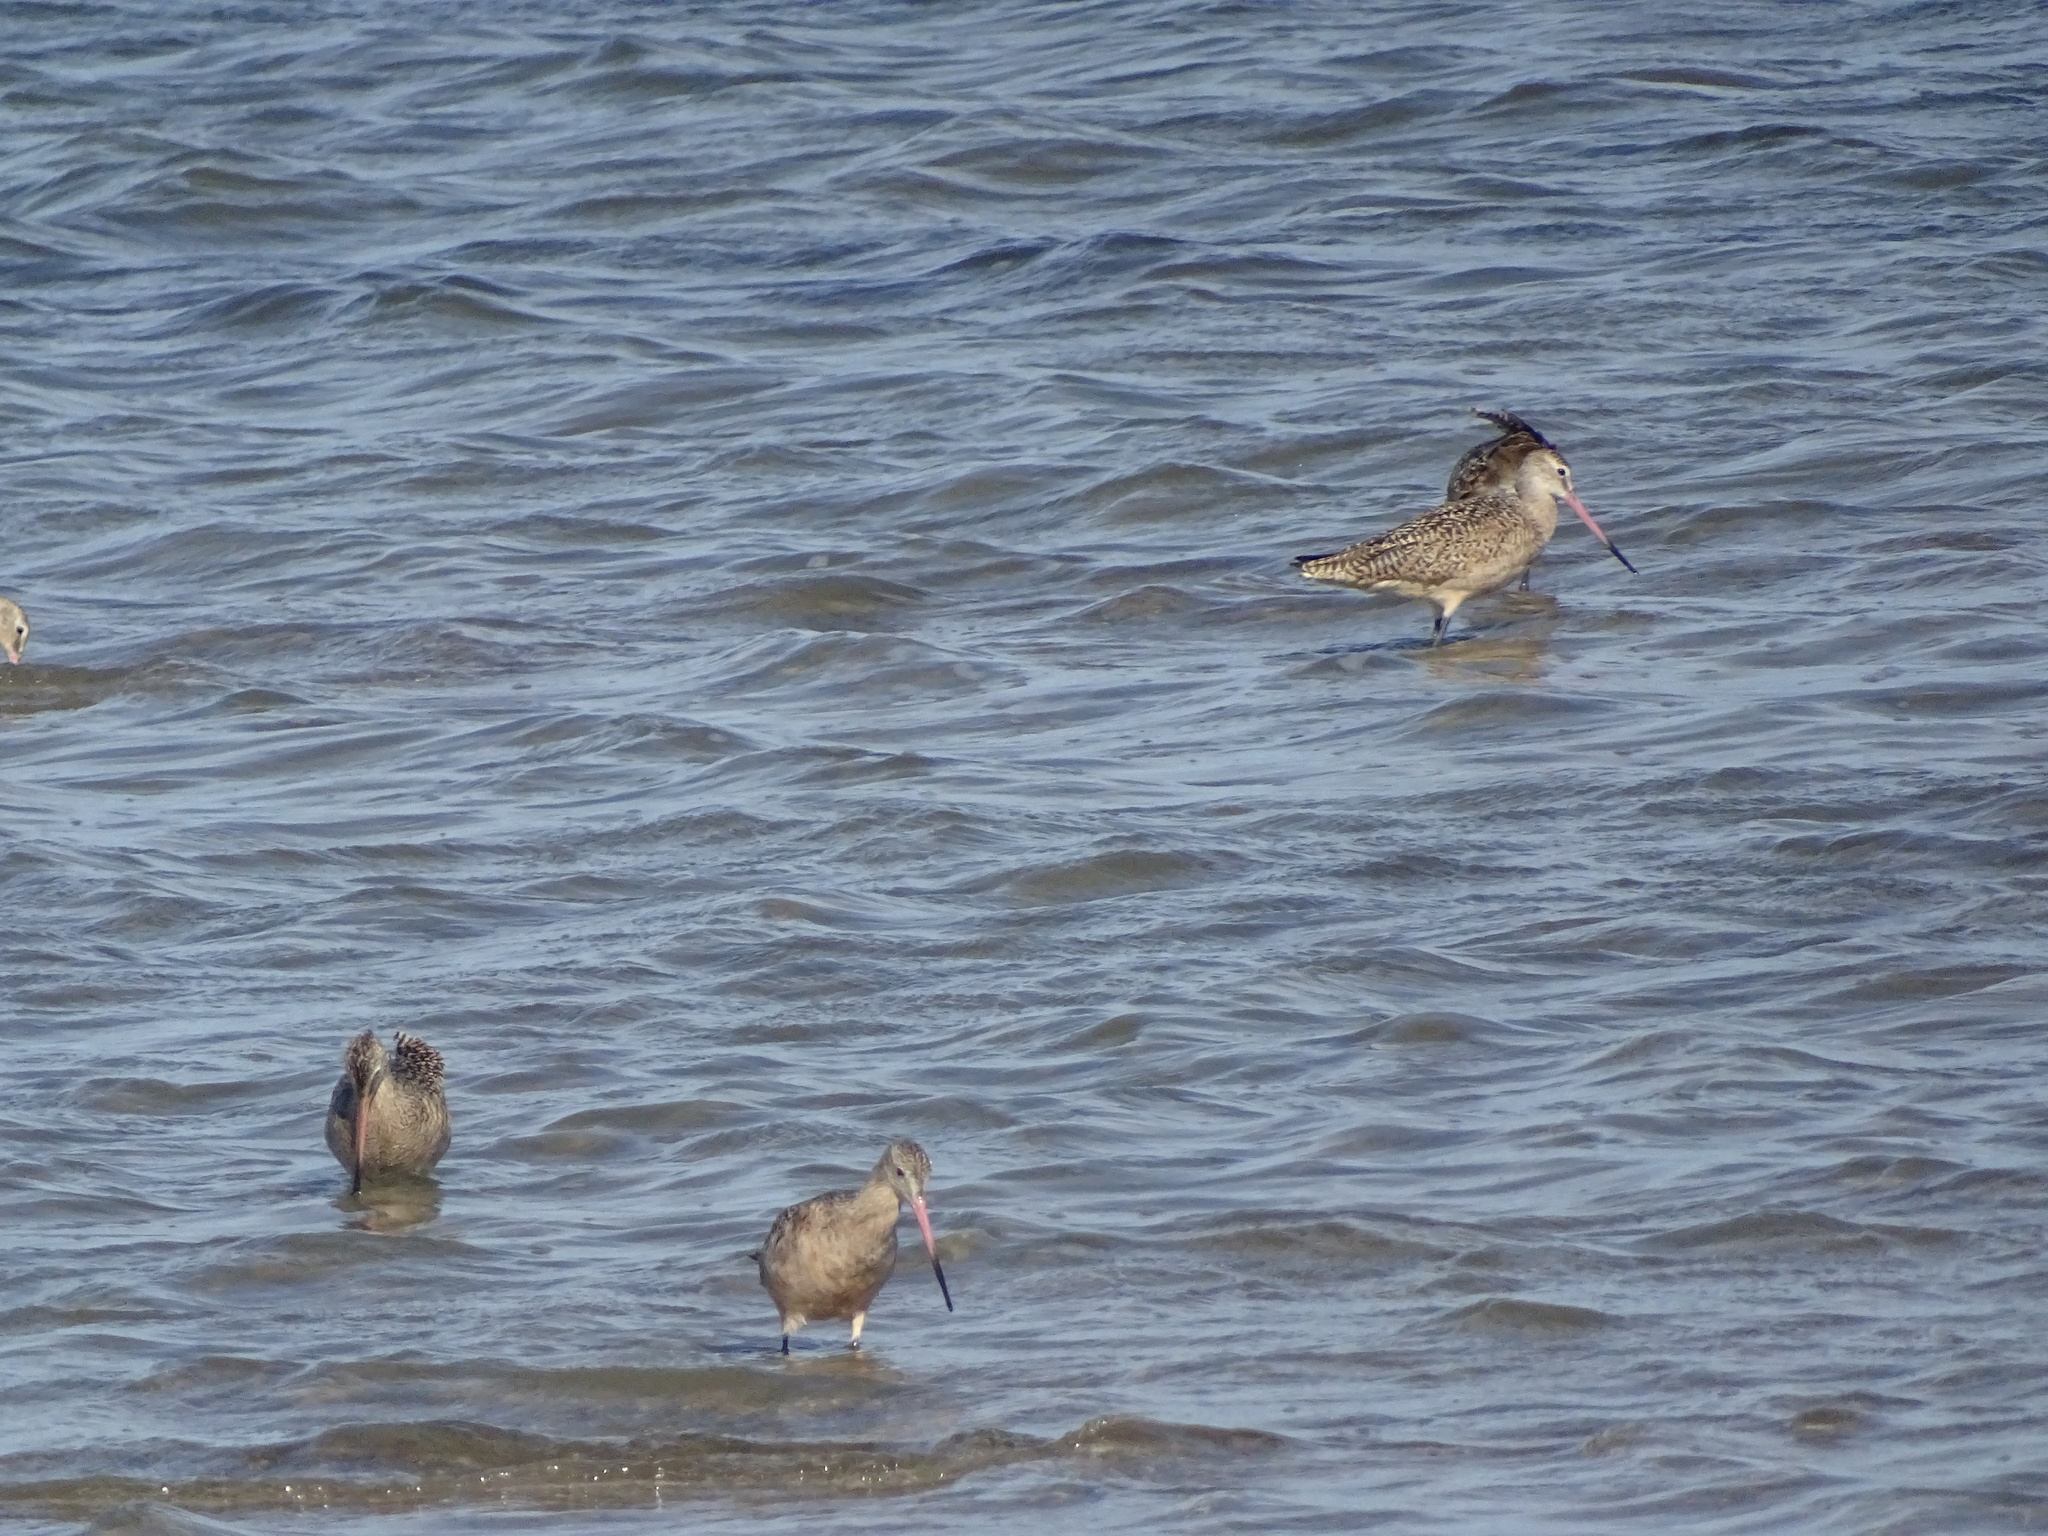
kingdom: Animalia
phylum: Chordata
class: Aves
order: Charadriiformes
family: Scolopacidae
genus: Limosa
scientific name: Limosa fedoa
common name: Marbled godwit
